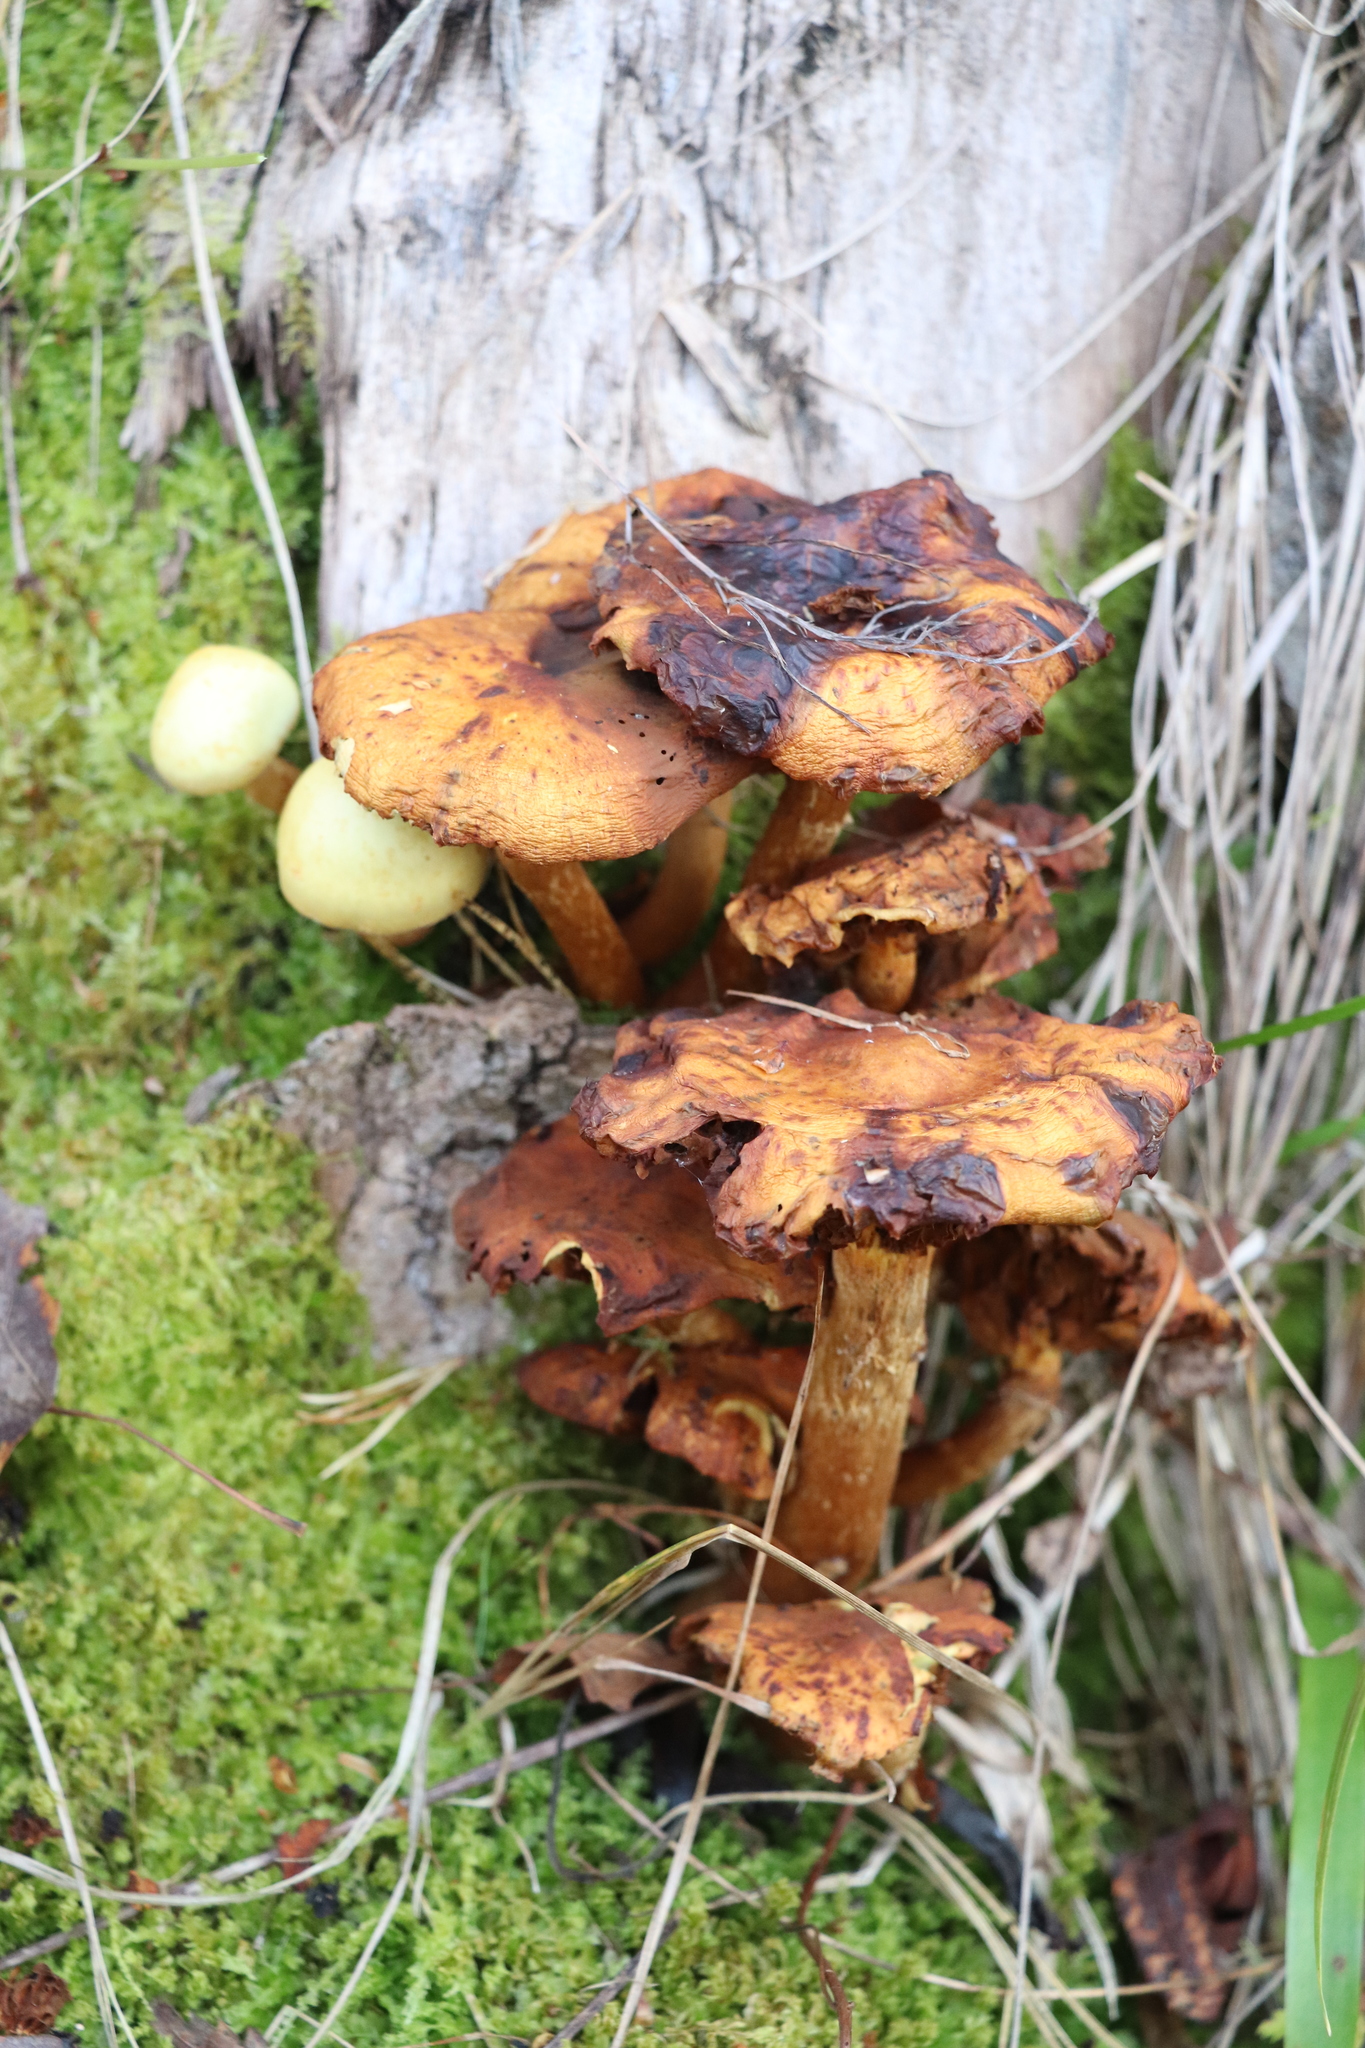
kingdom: Fungi
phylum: Basidiomycota
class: Agaricomycetes
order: Agaricales
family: Hymenogastraceae
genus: Flammula
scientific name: Flammula alnicola
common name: Alder scalycap
